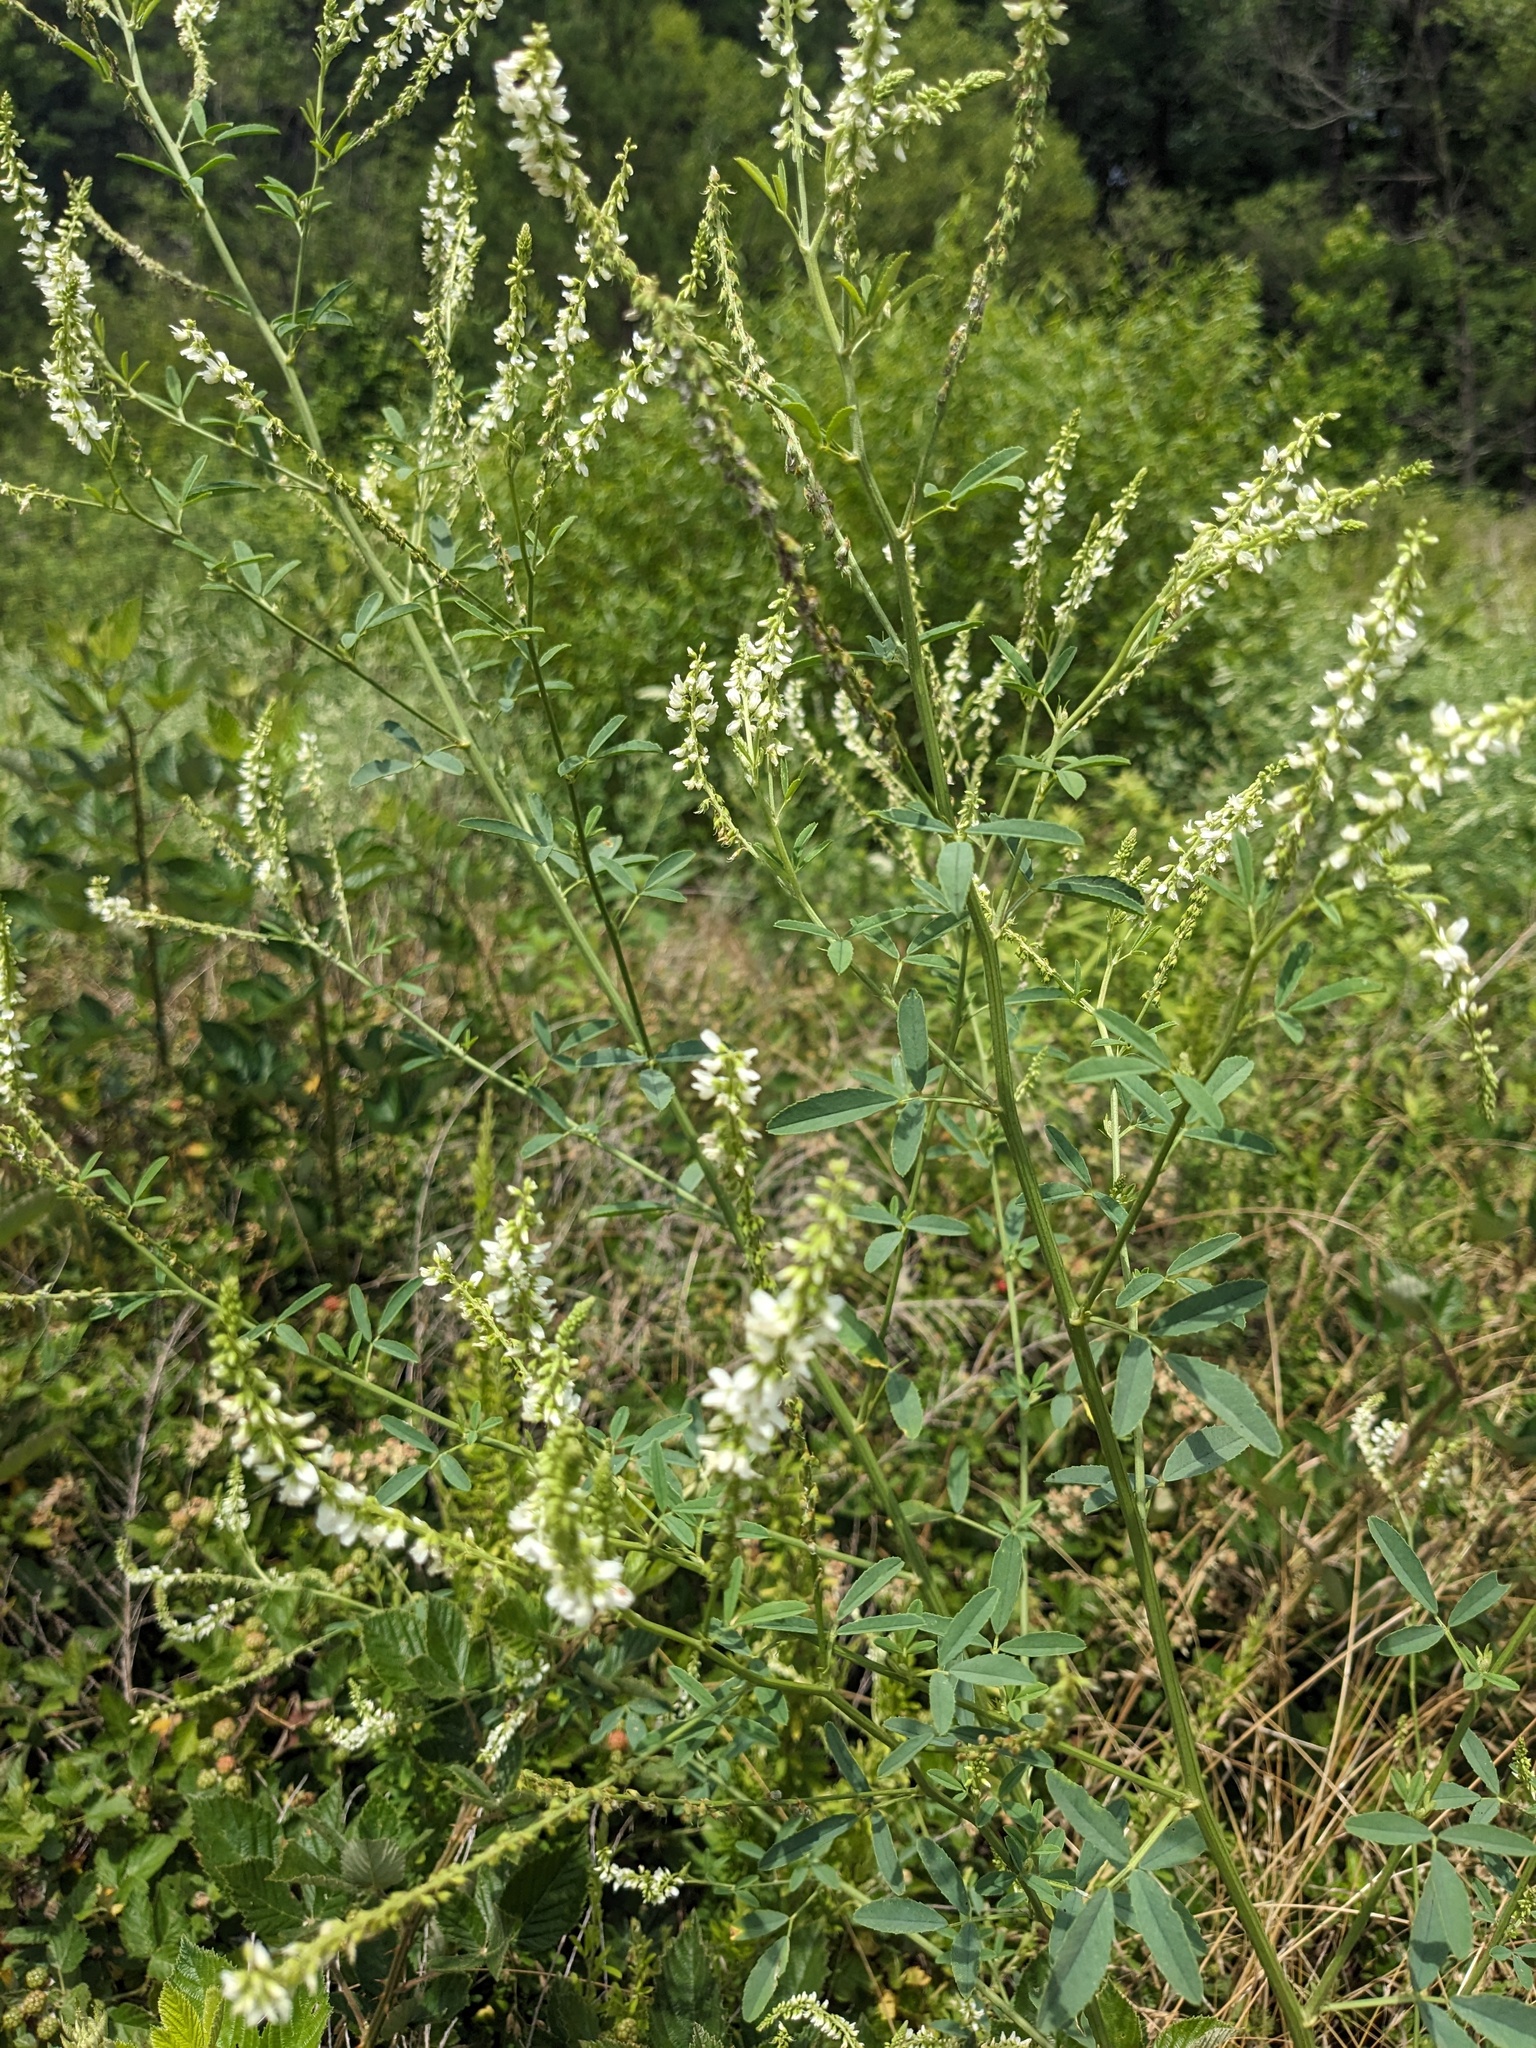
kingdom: Plantae
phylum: Tracheophyta
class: Magnoliopsida
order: Fabales
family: Fabaceae
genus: Melilotus
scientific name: Melilotus albus
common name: White melilot
